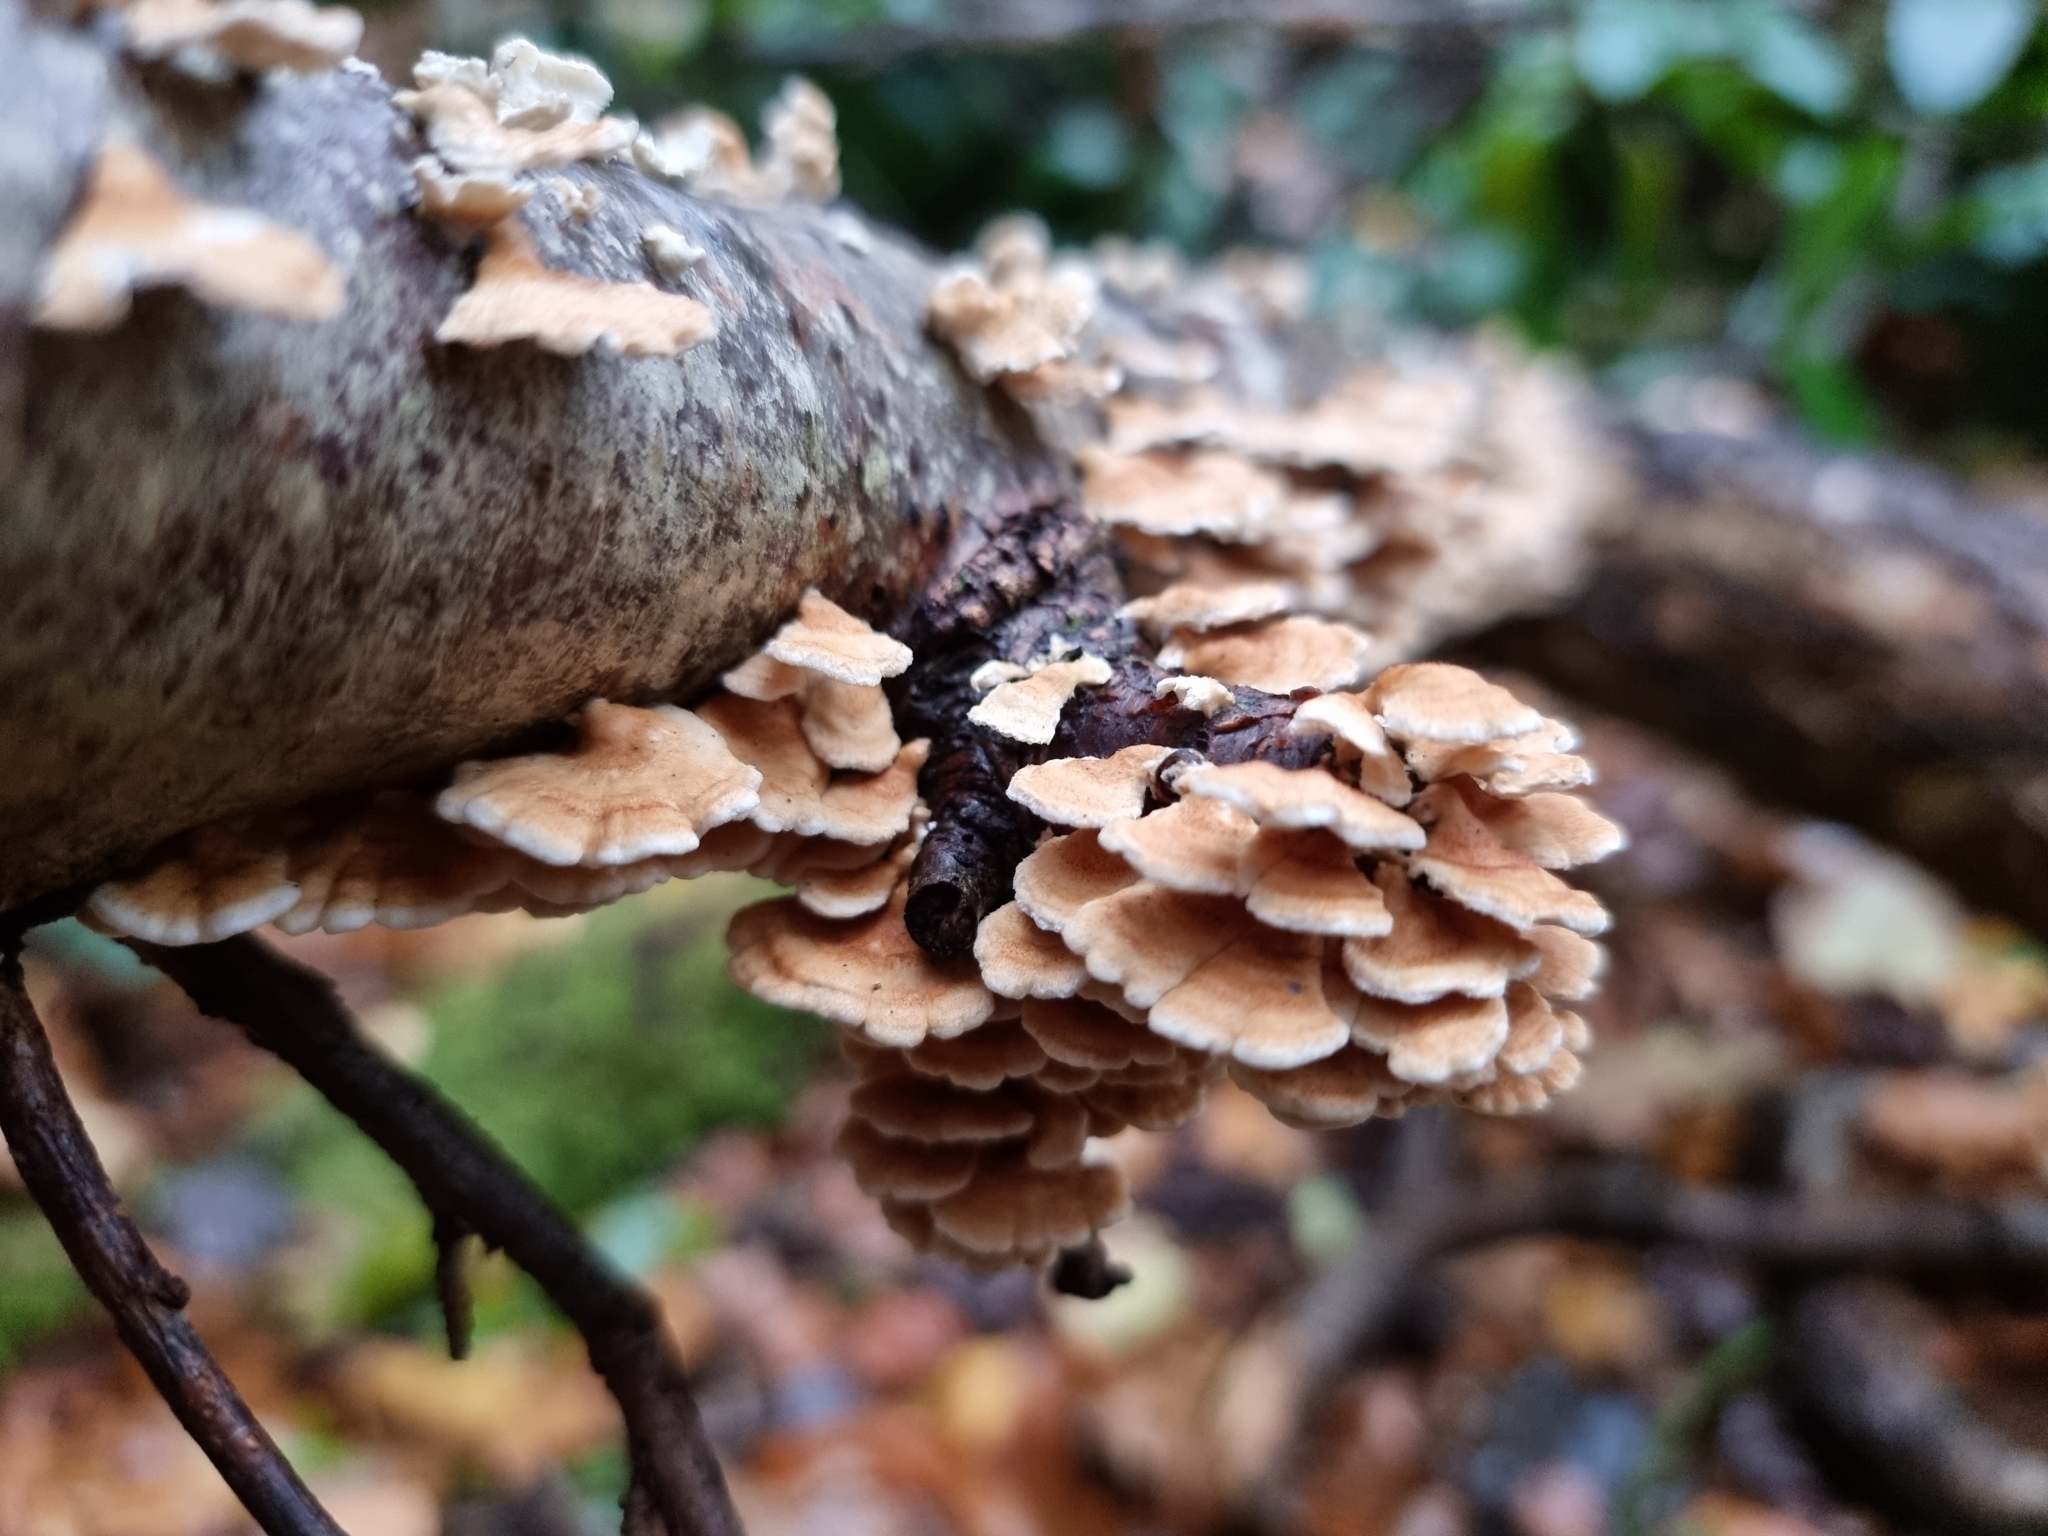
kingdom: Fungi
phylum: Basidiomycota
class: Agaricomycetes
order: Amylocorticiales
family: Amylocorticiaceae
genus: Plicaturopsis
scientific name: Plicaturopsis crispa
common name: Crimped gill
